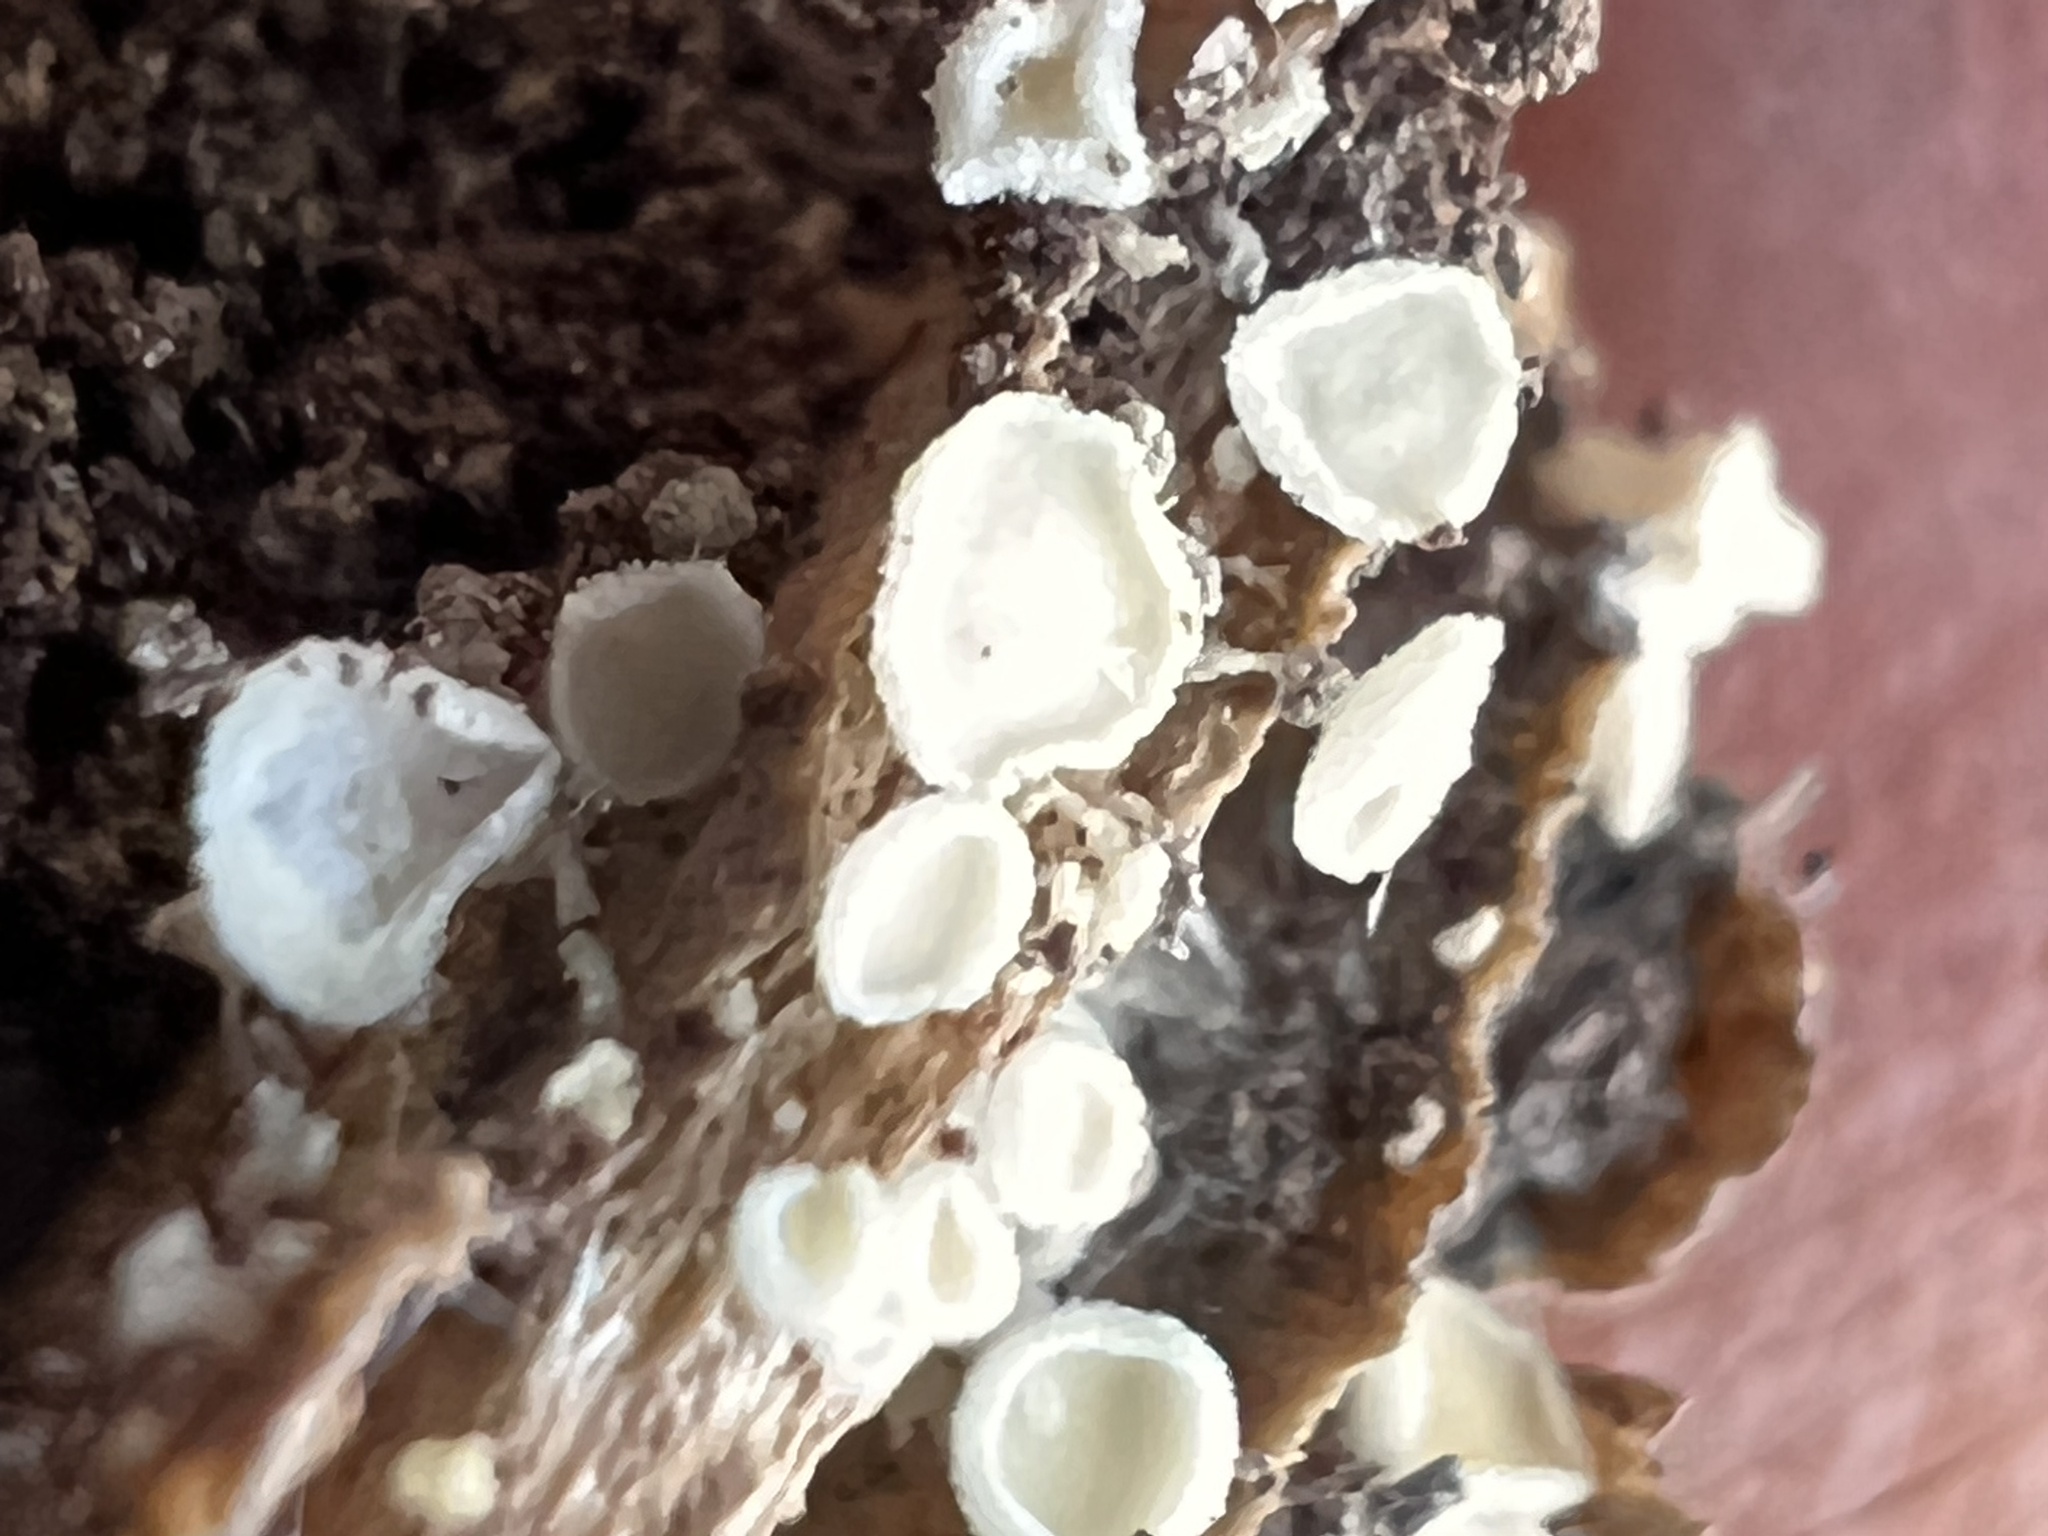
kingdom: Fungi
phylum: Ascomycota
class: Leotiomycetes
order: Helotiales
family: Lachnaceae
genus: Lachnum
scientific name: Lachnum virgineum
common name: Snowy disco
